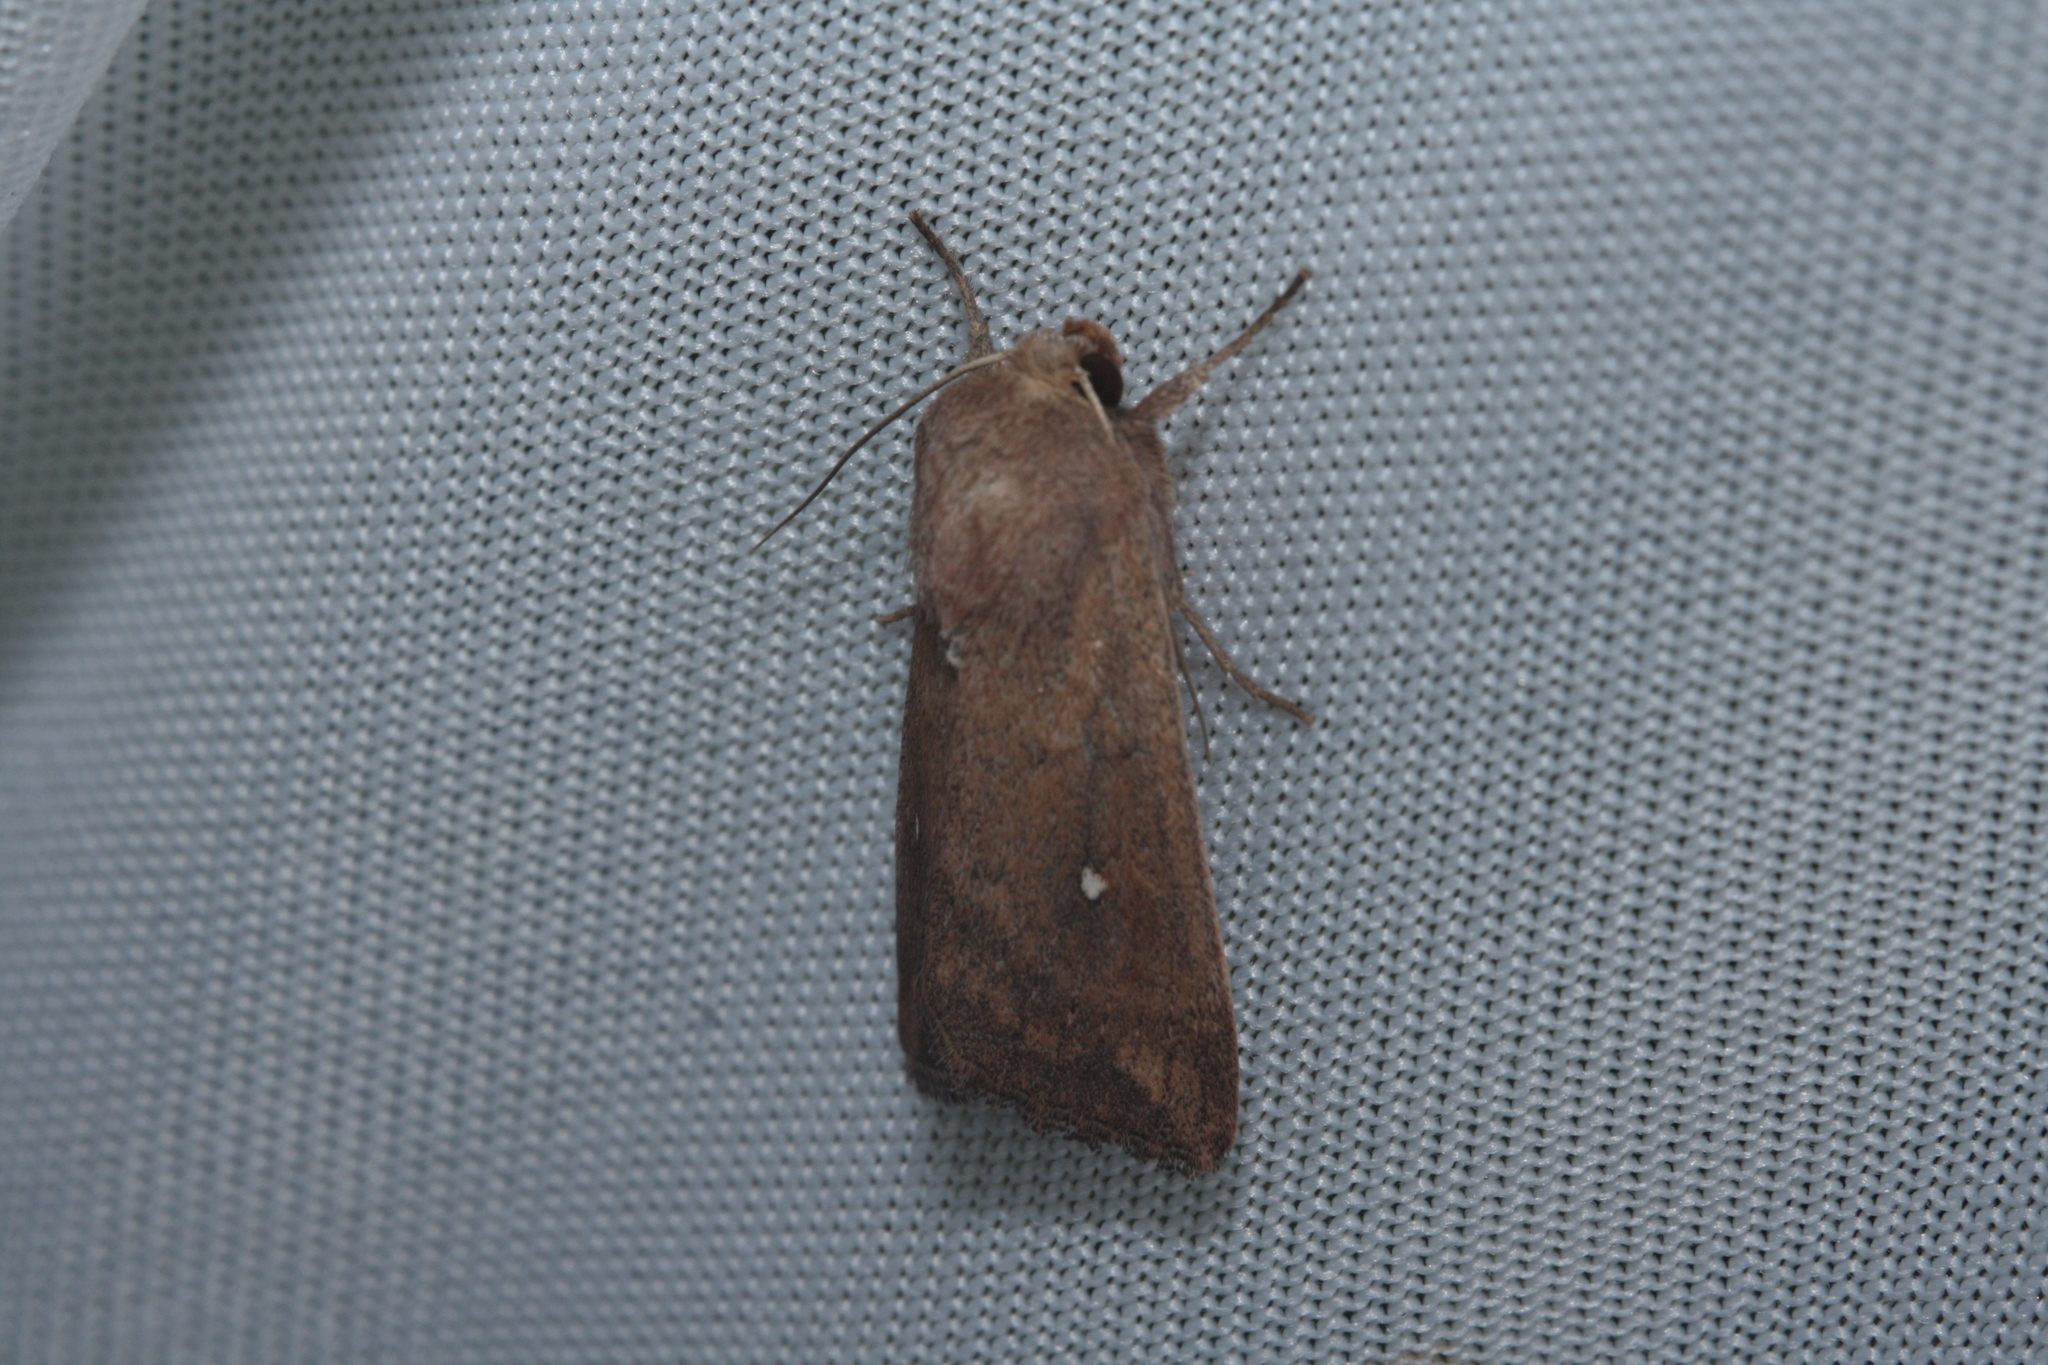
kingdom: Animalia
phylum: Arthropoda
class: Insecta
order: Lepidoptera
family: Noctuidae
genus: Mythimna
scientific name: Mythimna albipuncta
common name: White-point
